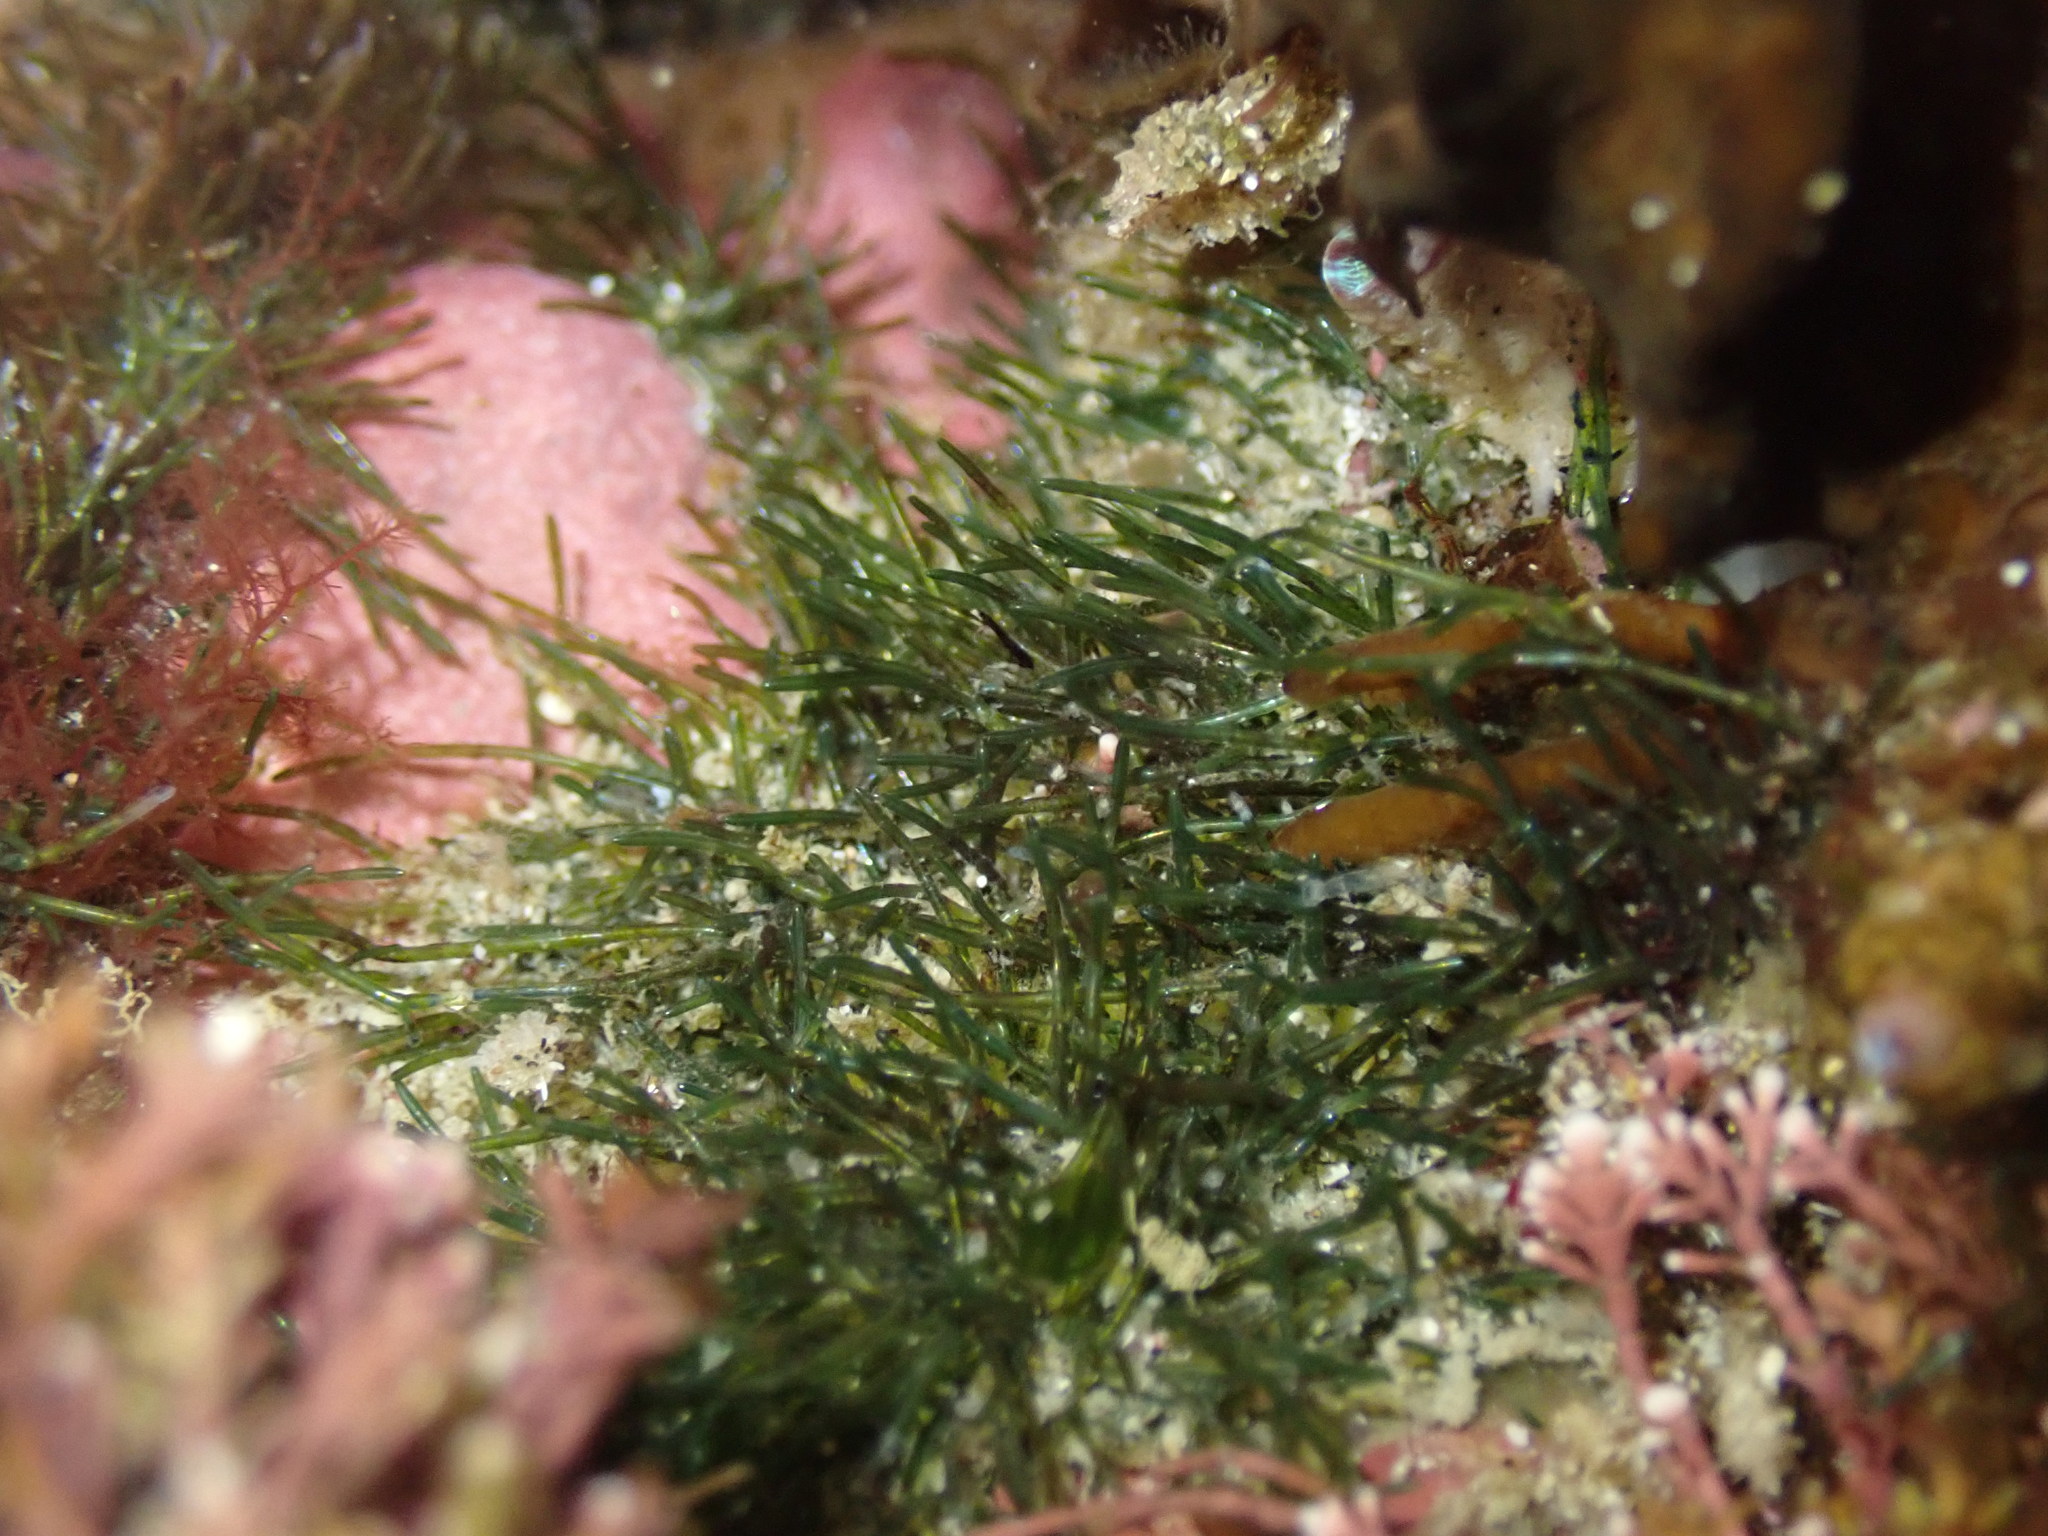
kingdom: Plantae
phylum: Chlorophyta
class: Ulvophyceae
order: Cladophorales
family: Cladophoraceae
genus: Lychaete
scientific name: Lychaete herpestica
